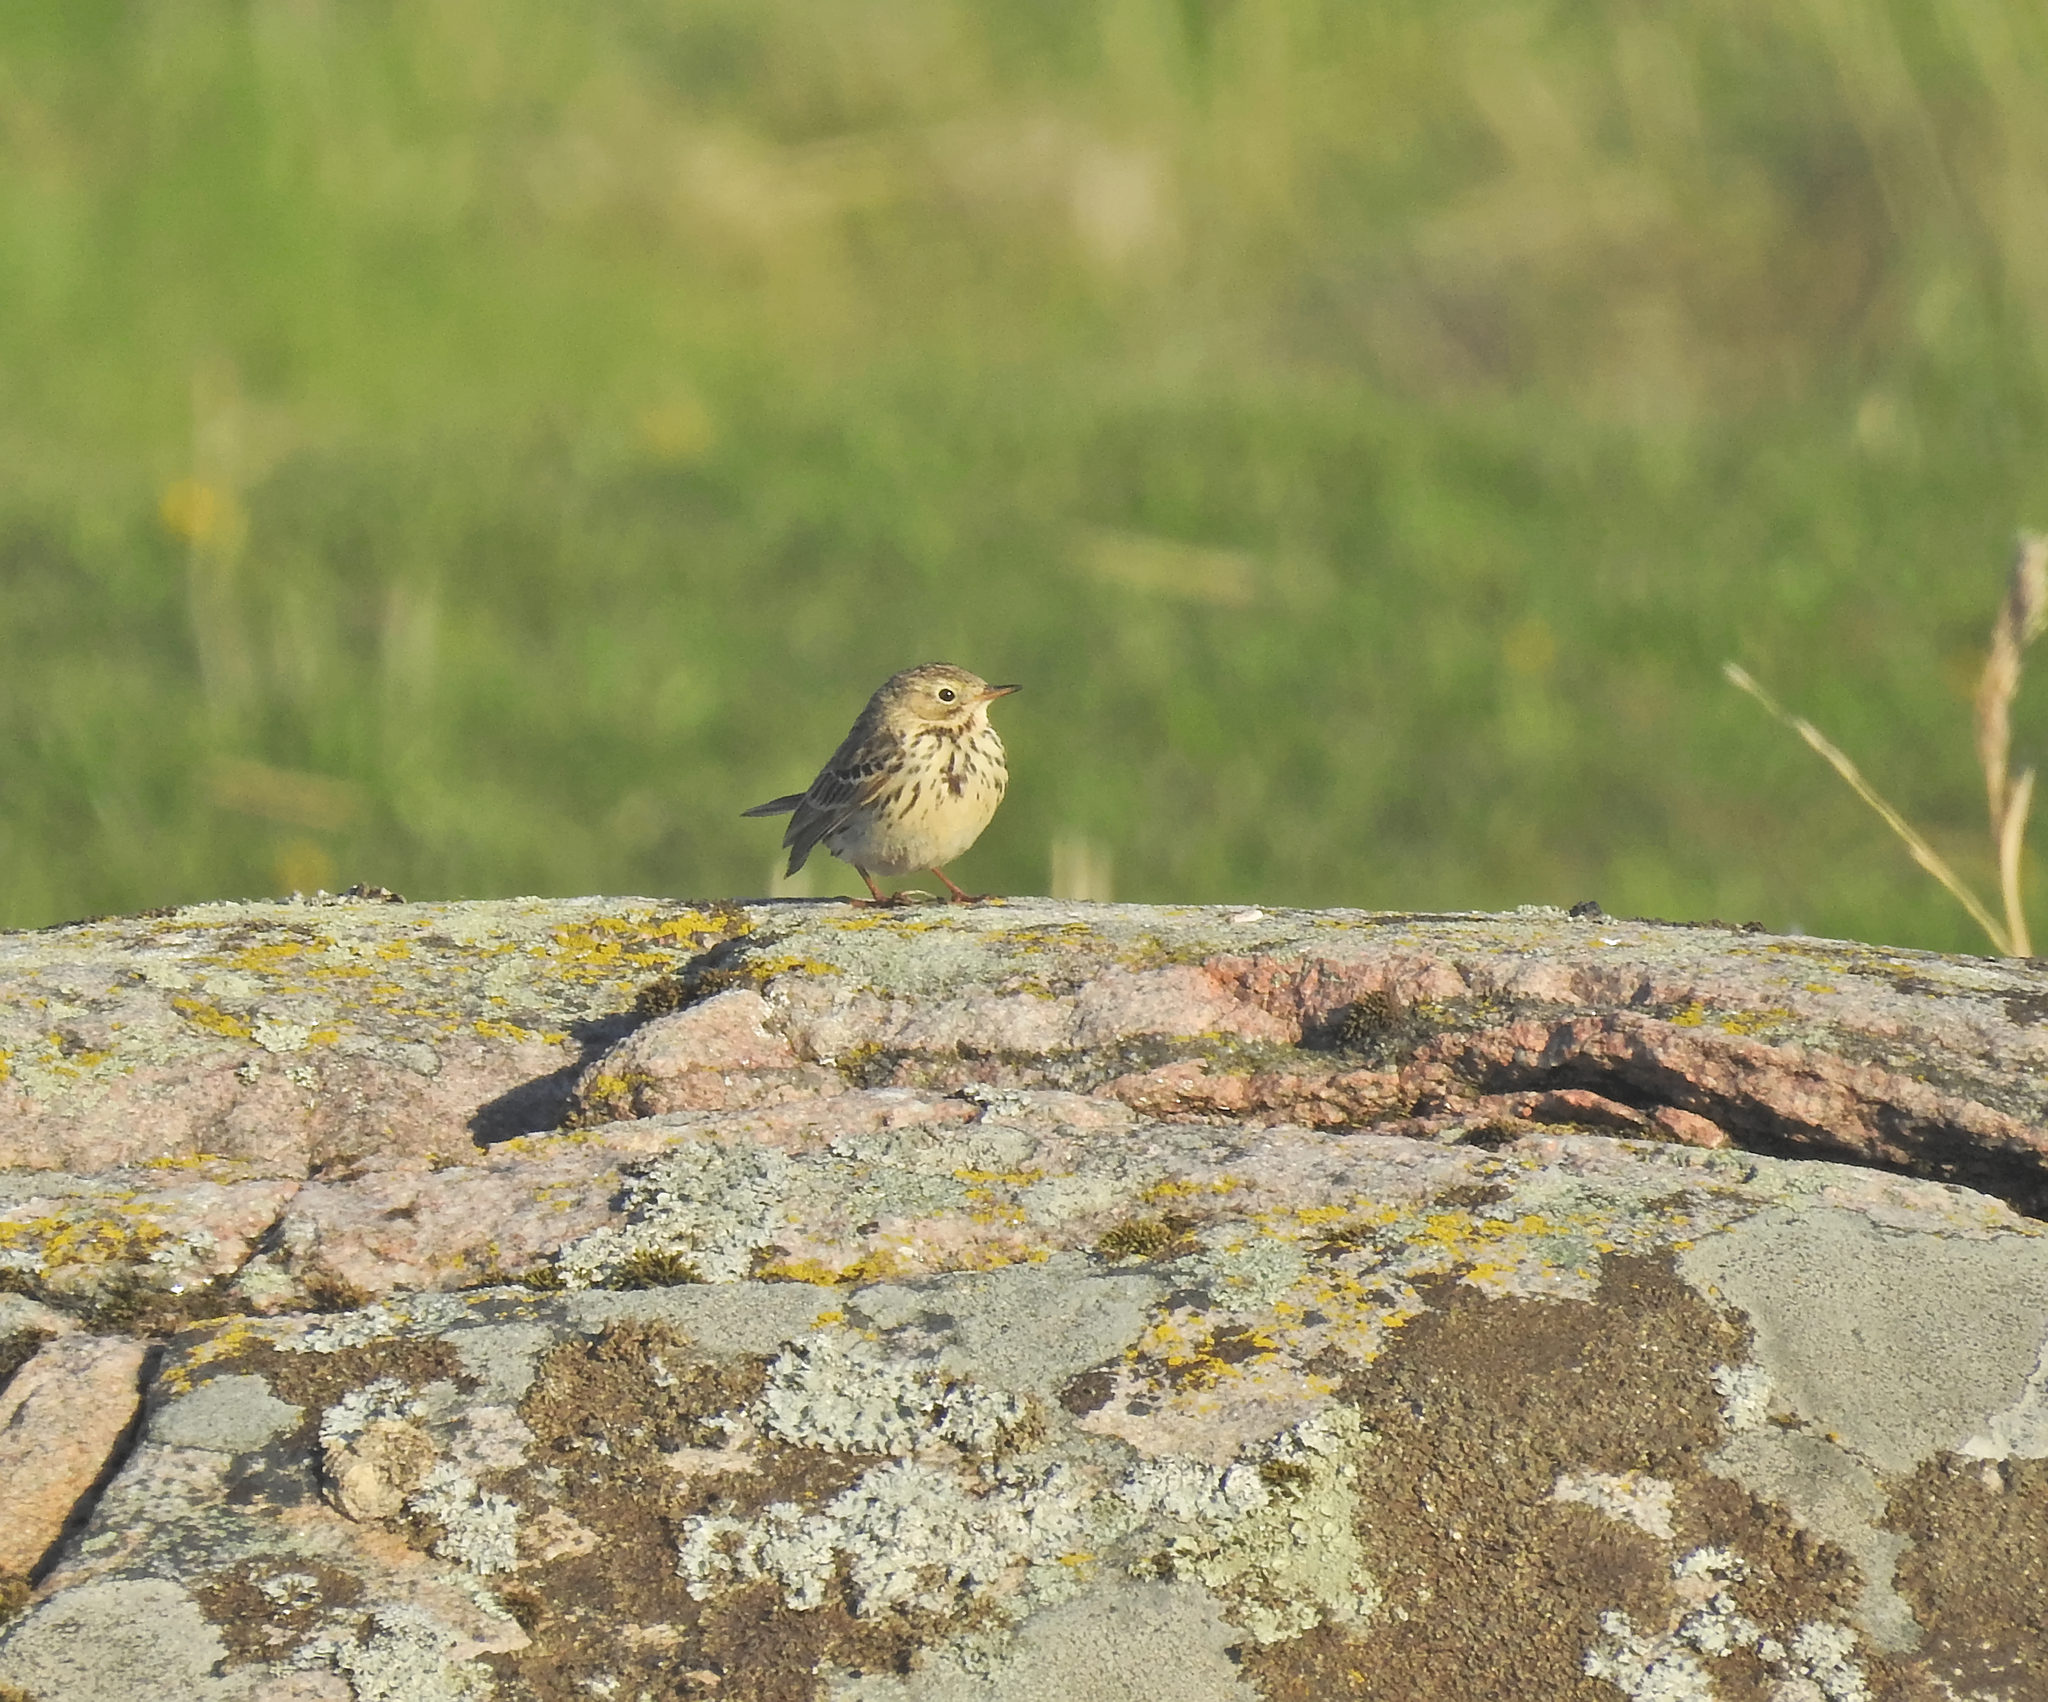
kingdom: Animalia
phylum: Chordata
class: Aves
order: Passeriformes
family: Motacillidae
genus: Anthus
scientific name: Anthus pratensis
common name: Meadow pipit
